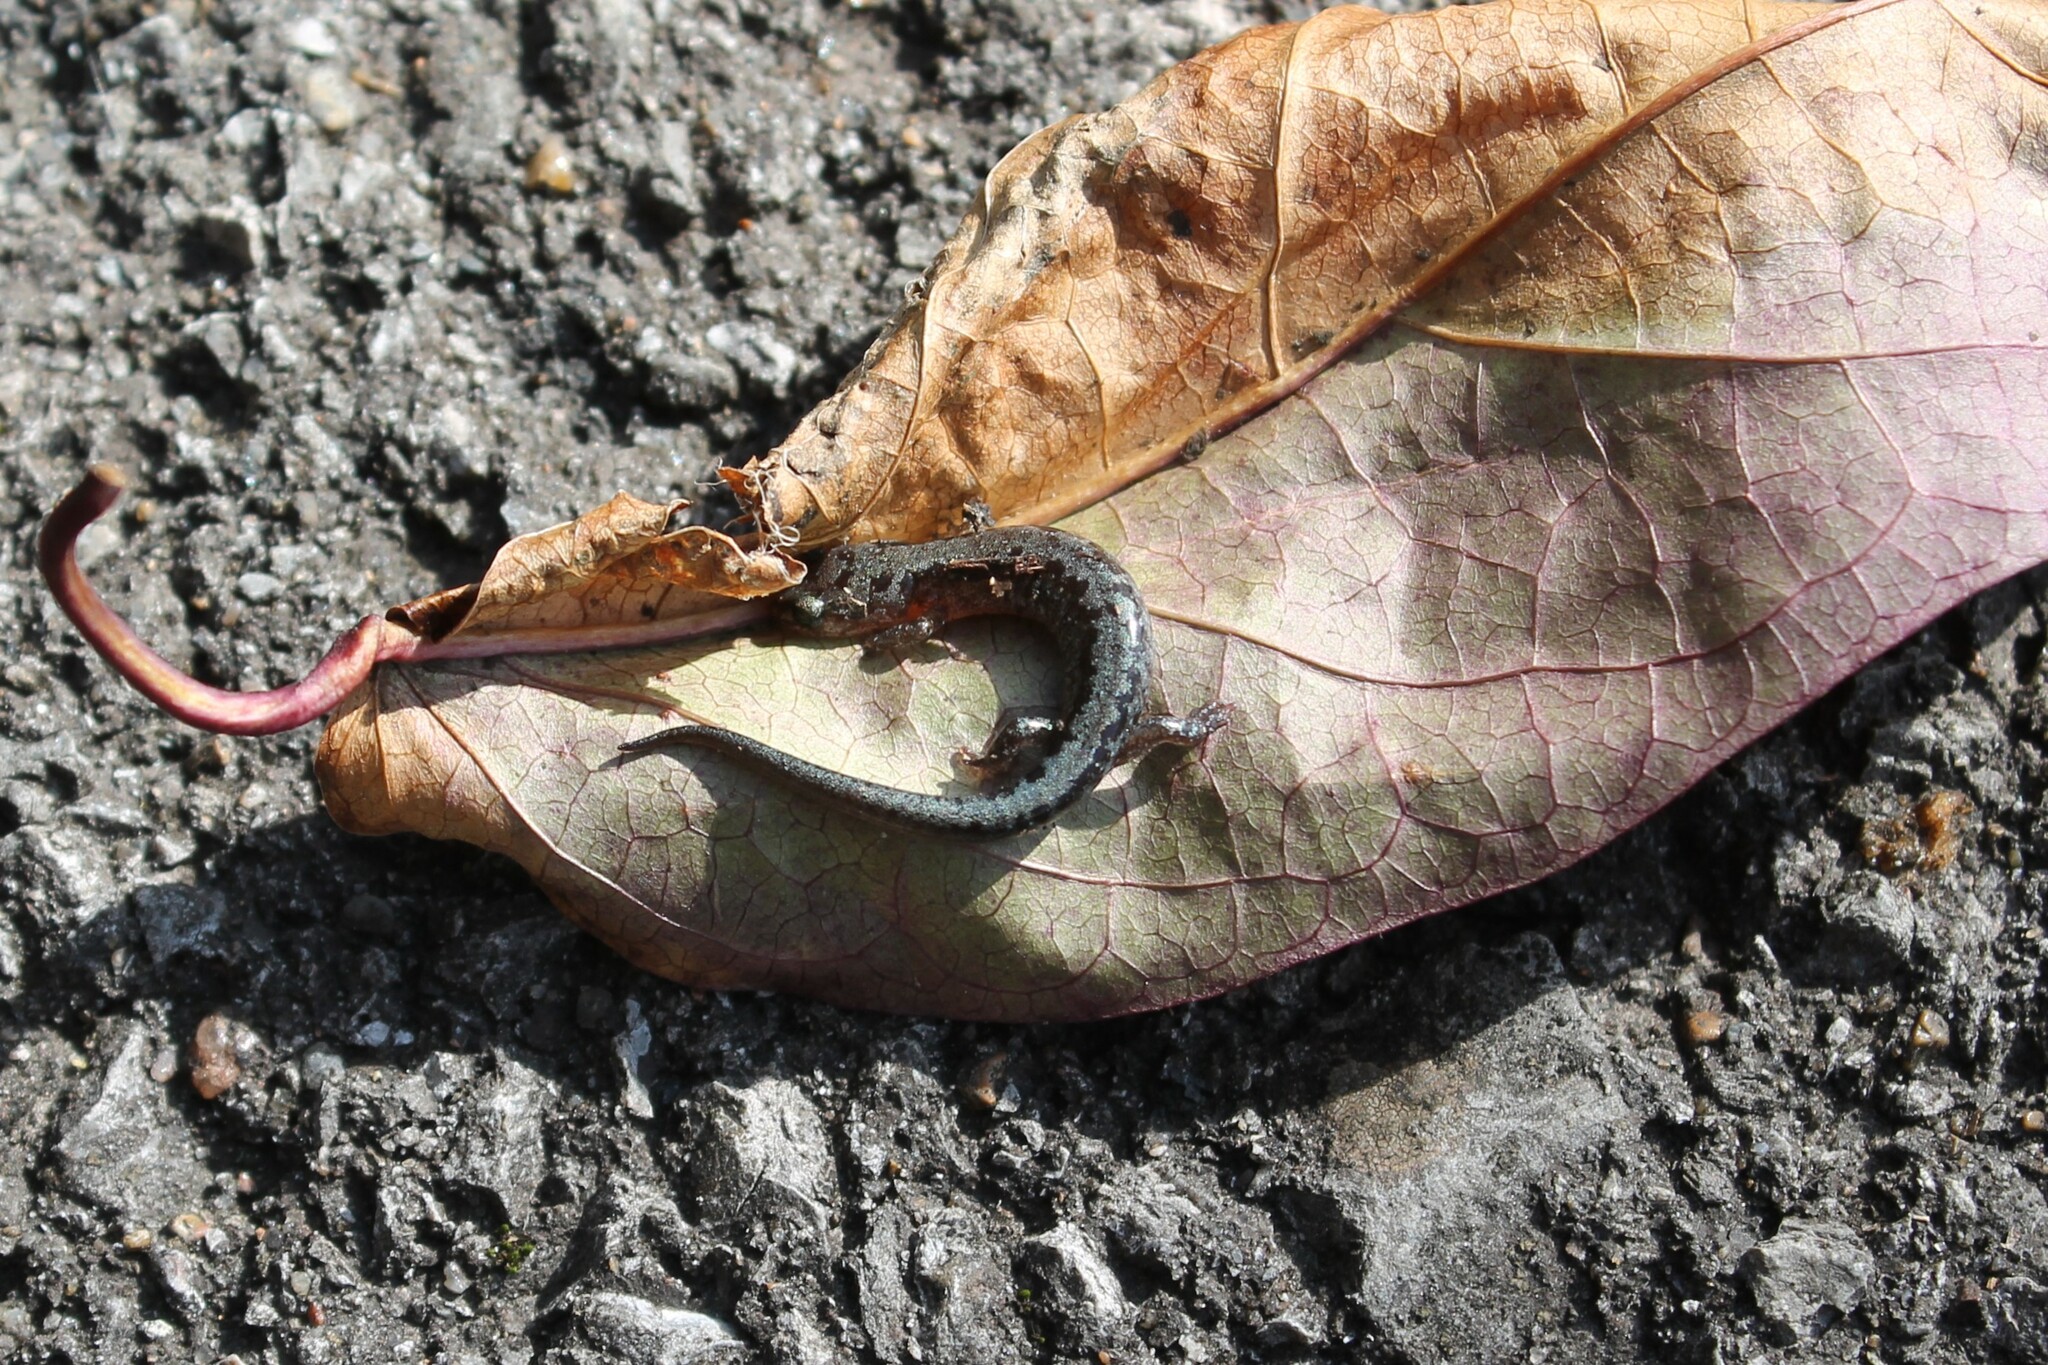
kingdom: Animalia
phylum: Chordata
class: Amphibia
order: Caudata
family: Plethodontidae
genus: Plethodon
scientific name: Plethodon dorsalis
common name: Northern zigzag salamander
